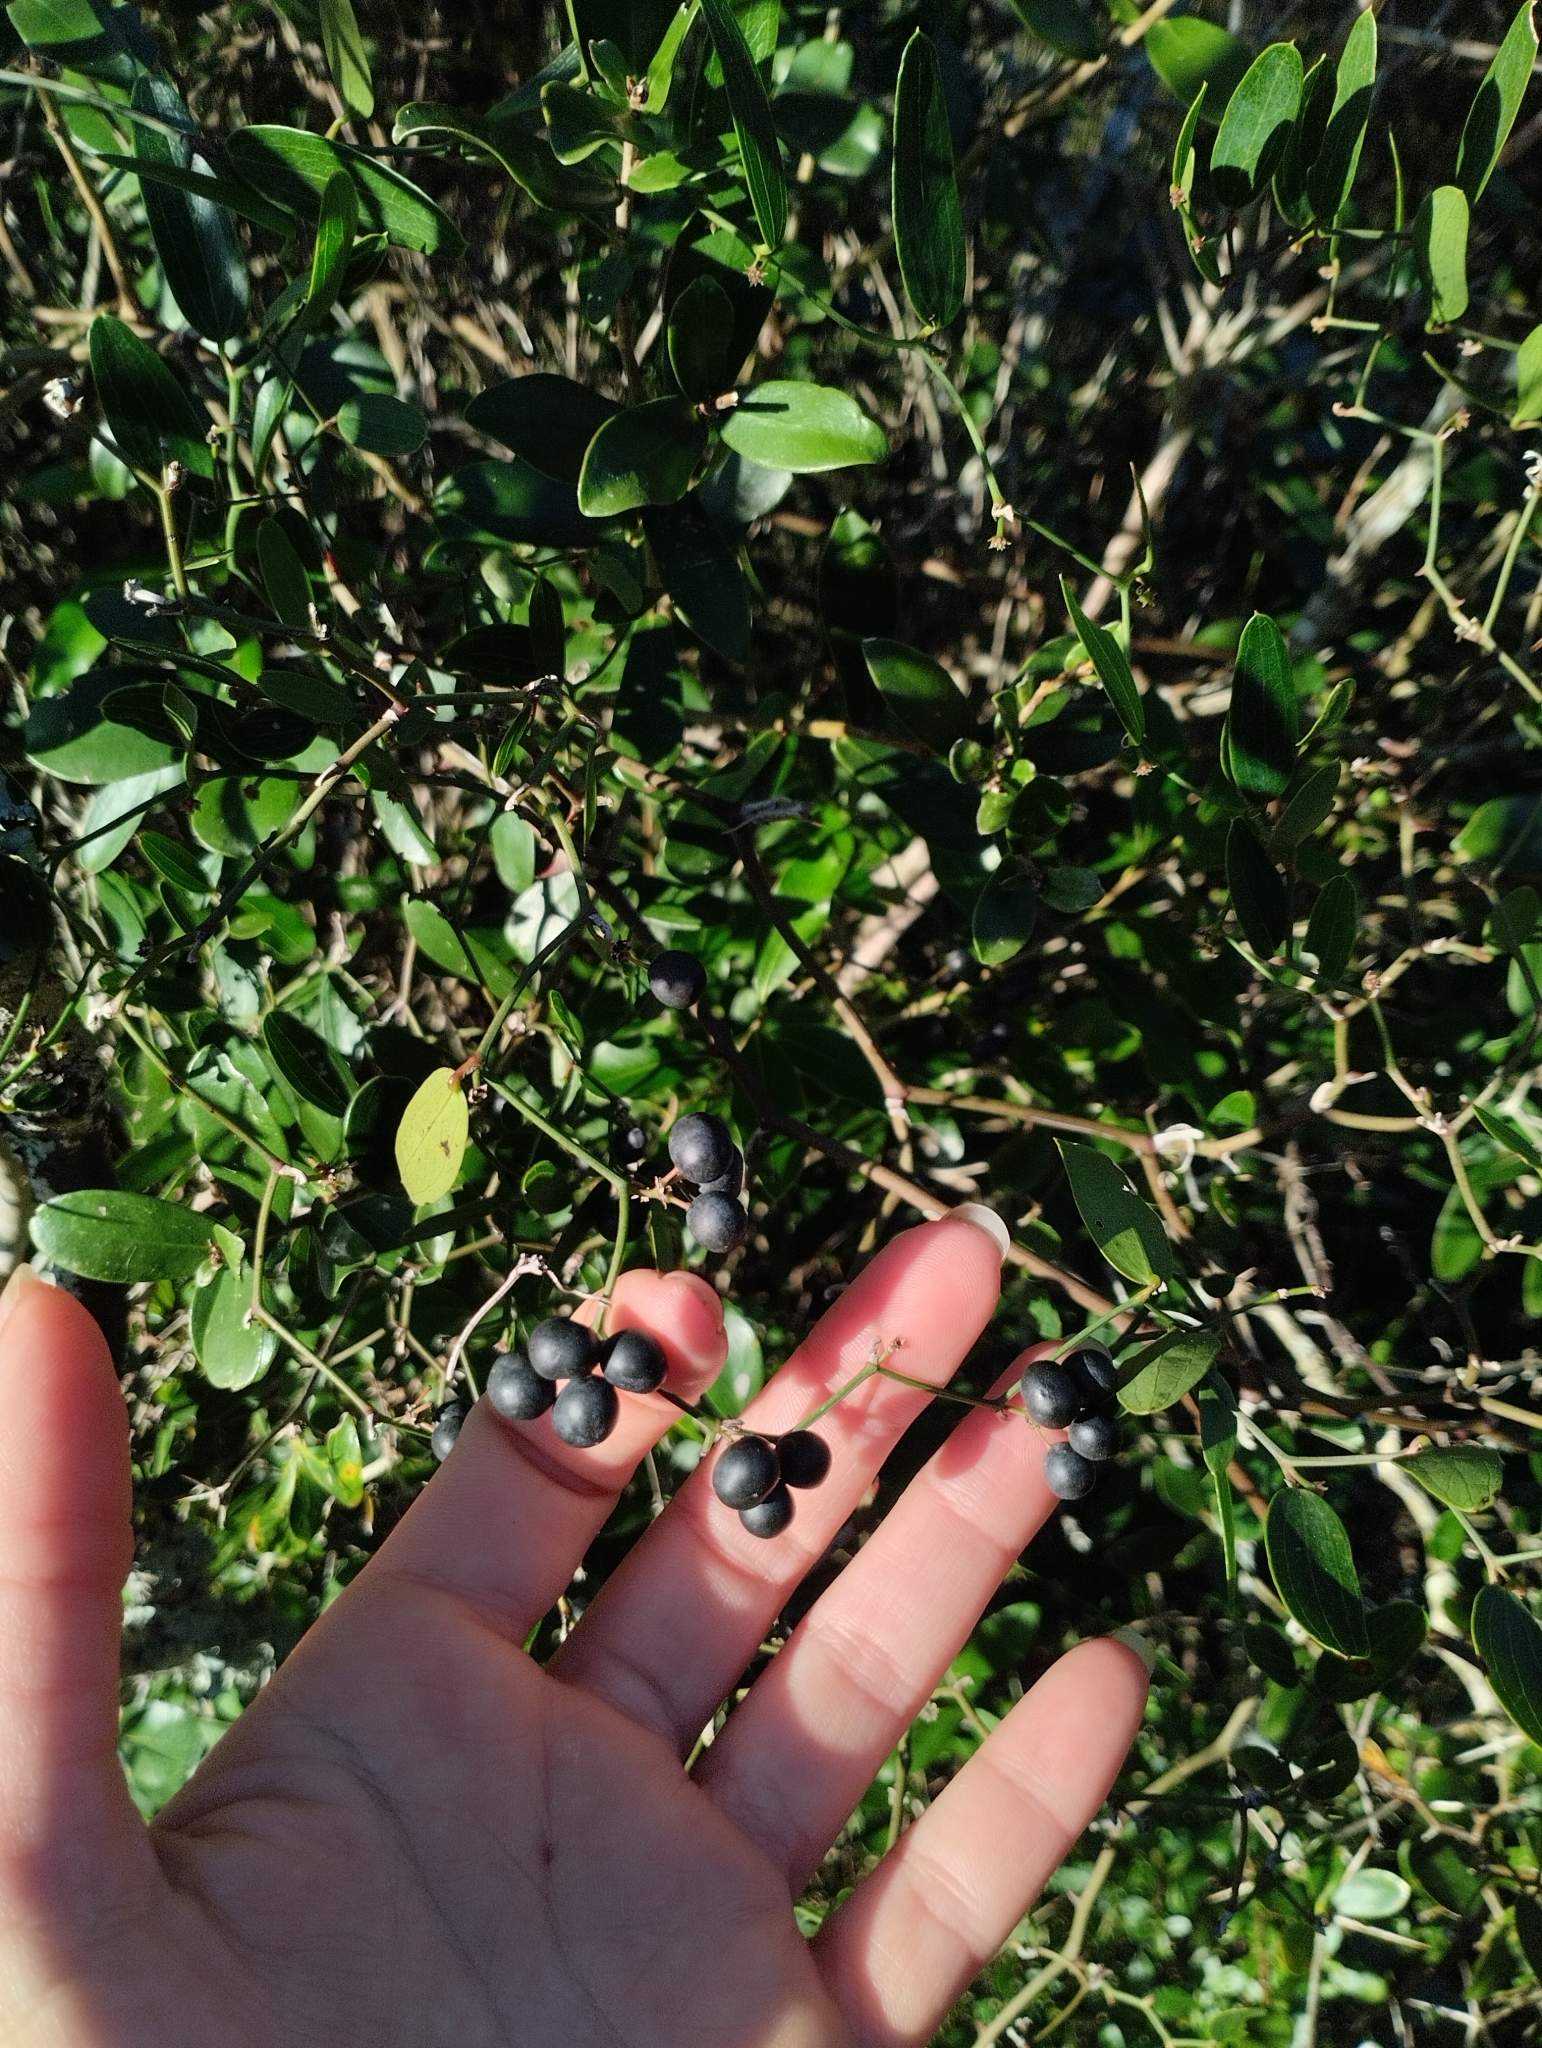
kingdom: Plantae
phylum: Tracheophyta
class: Liliopsida
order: Liliales
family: Smilacaceae
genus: Smilax
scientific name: Smilax campestris
